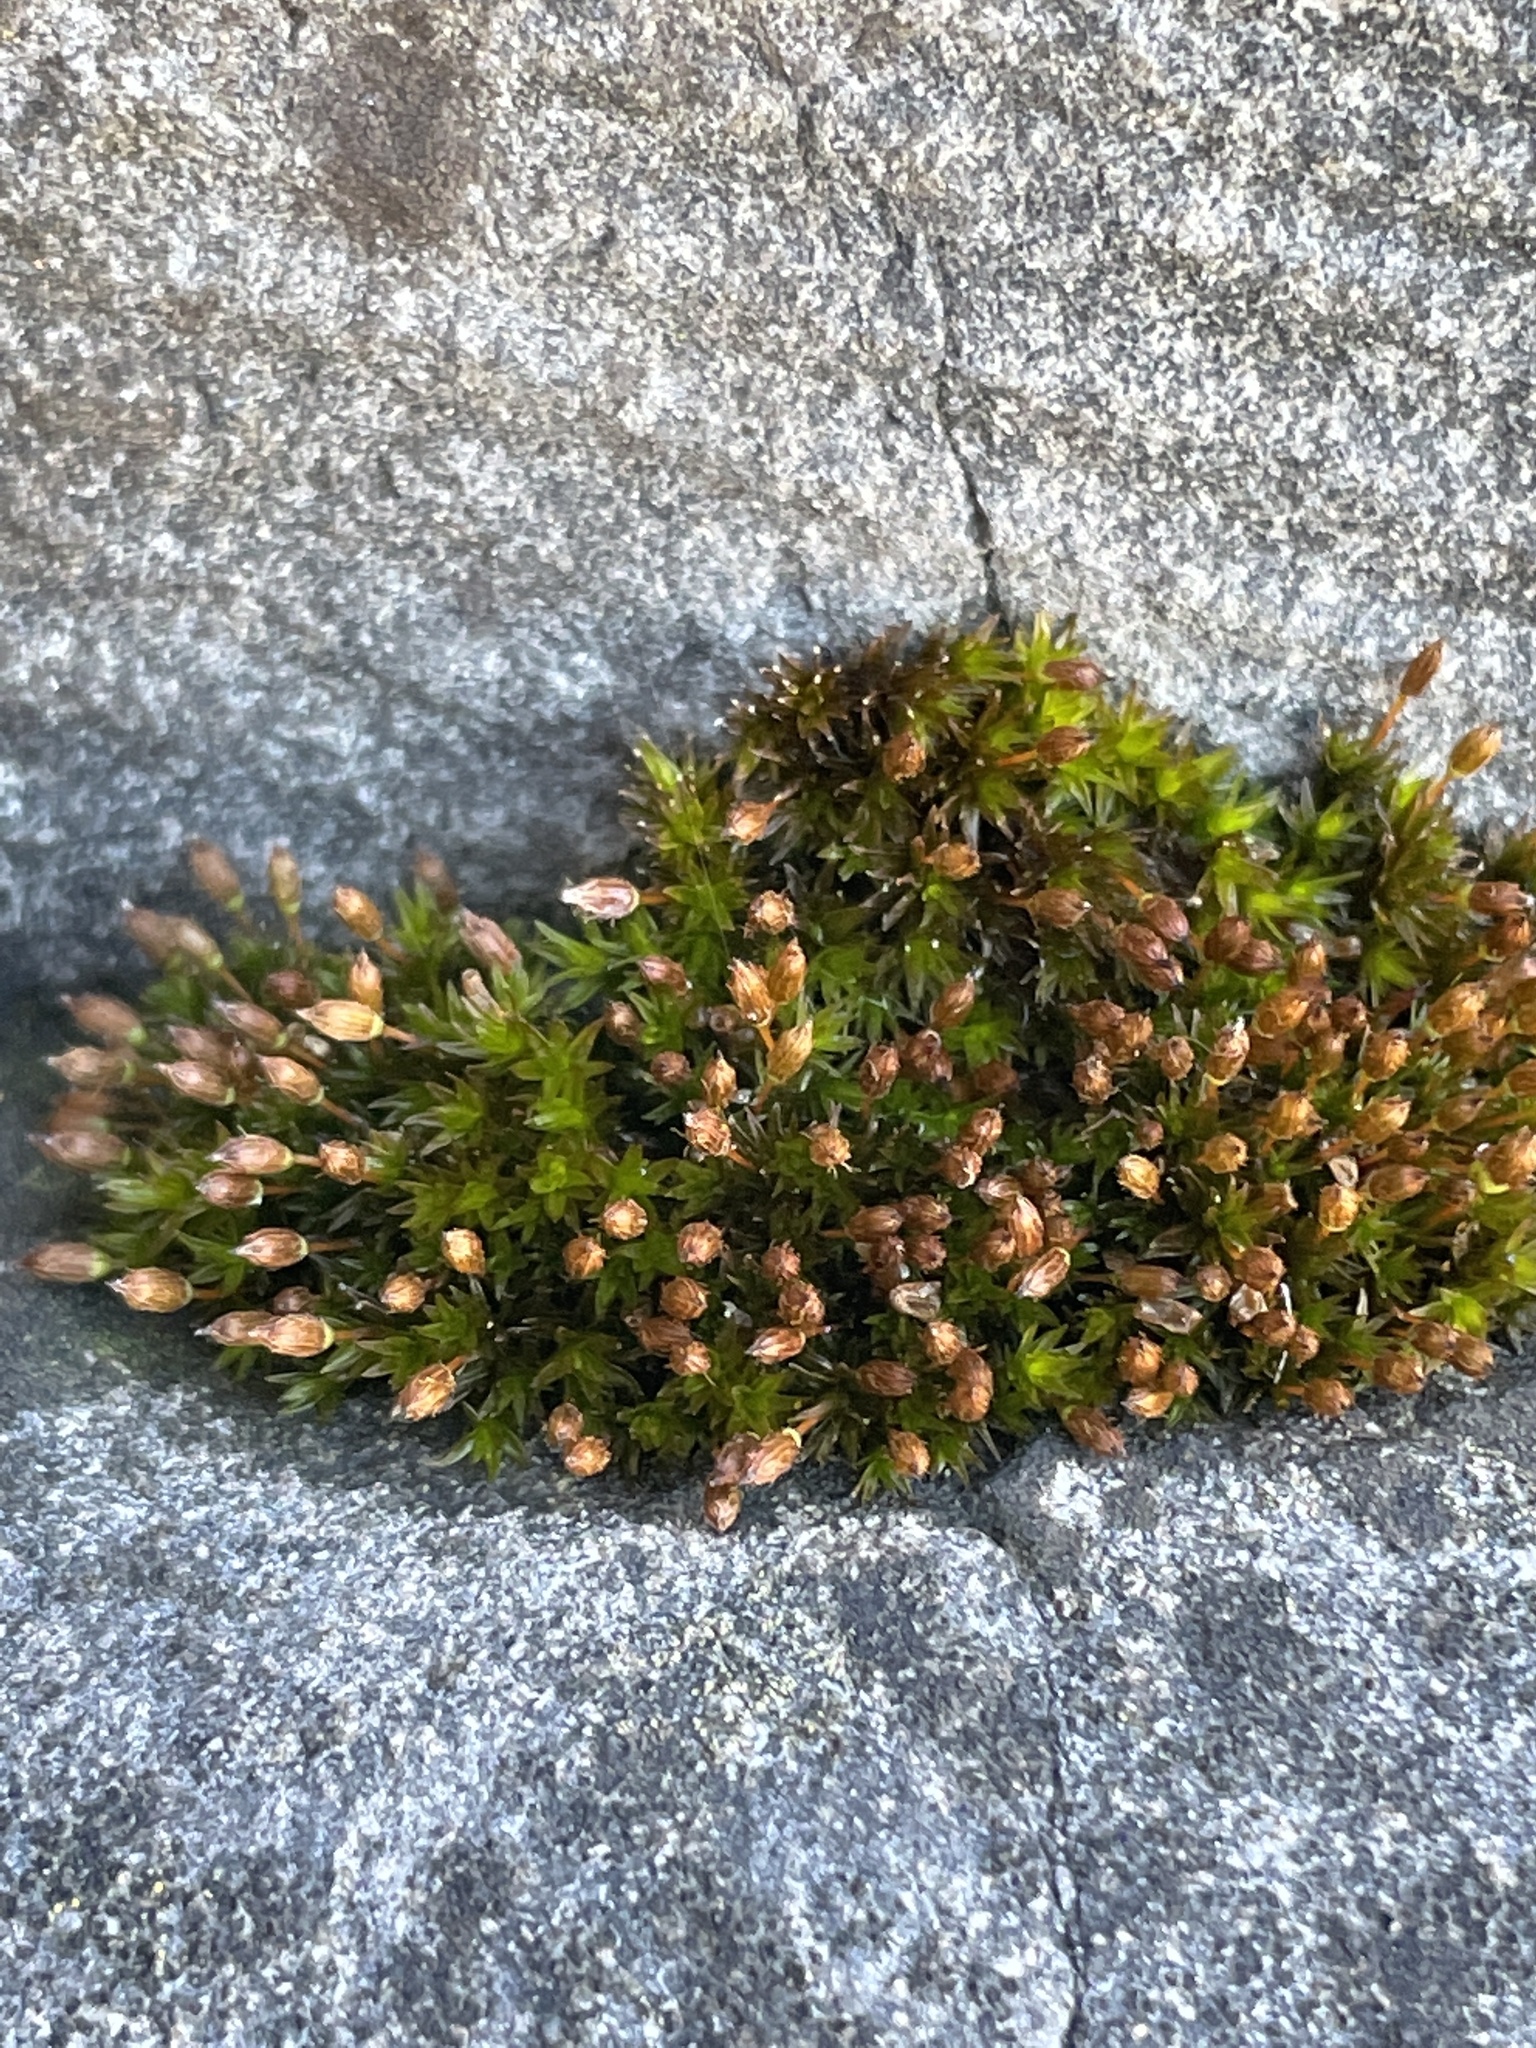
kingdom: Plantae
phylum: Bryophyta
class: Bryopsida
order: Orthotrichales
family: Orthotrichaceae
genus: Orthotrichum
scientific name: Orthotrichum anomalum
